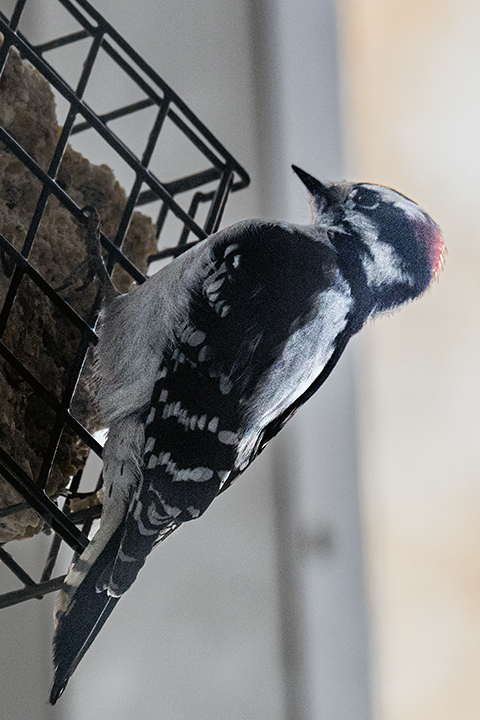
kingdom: Animalia
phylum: Chordata
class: Aves
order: Piciformes
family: Picidae
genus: Dryobates
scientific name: Dryobates pubescens
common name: Downy woodpecker
